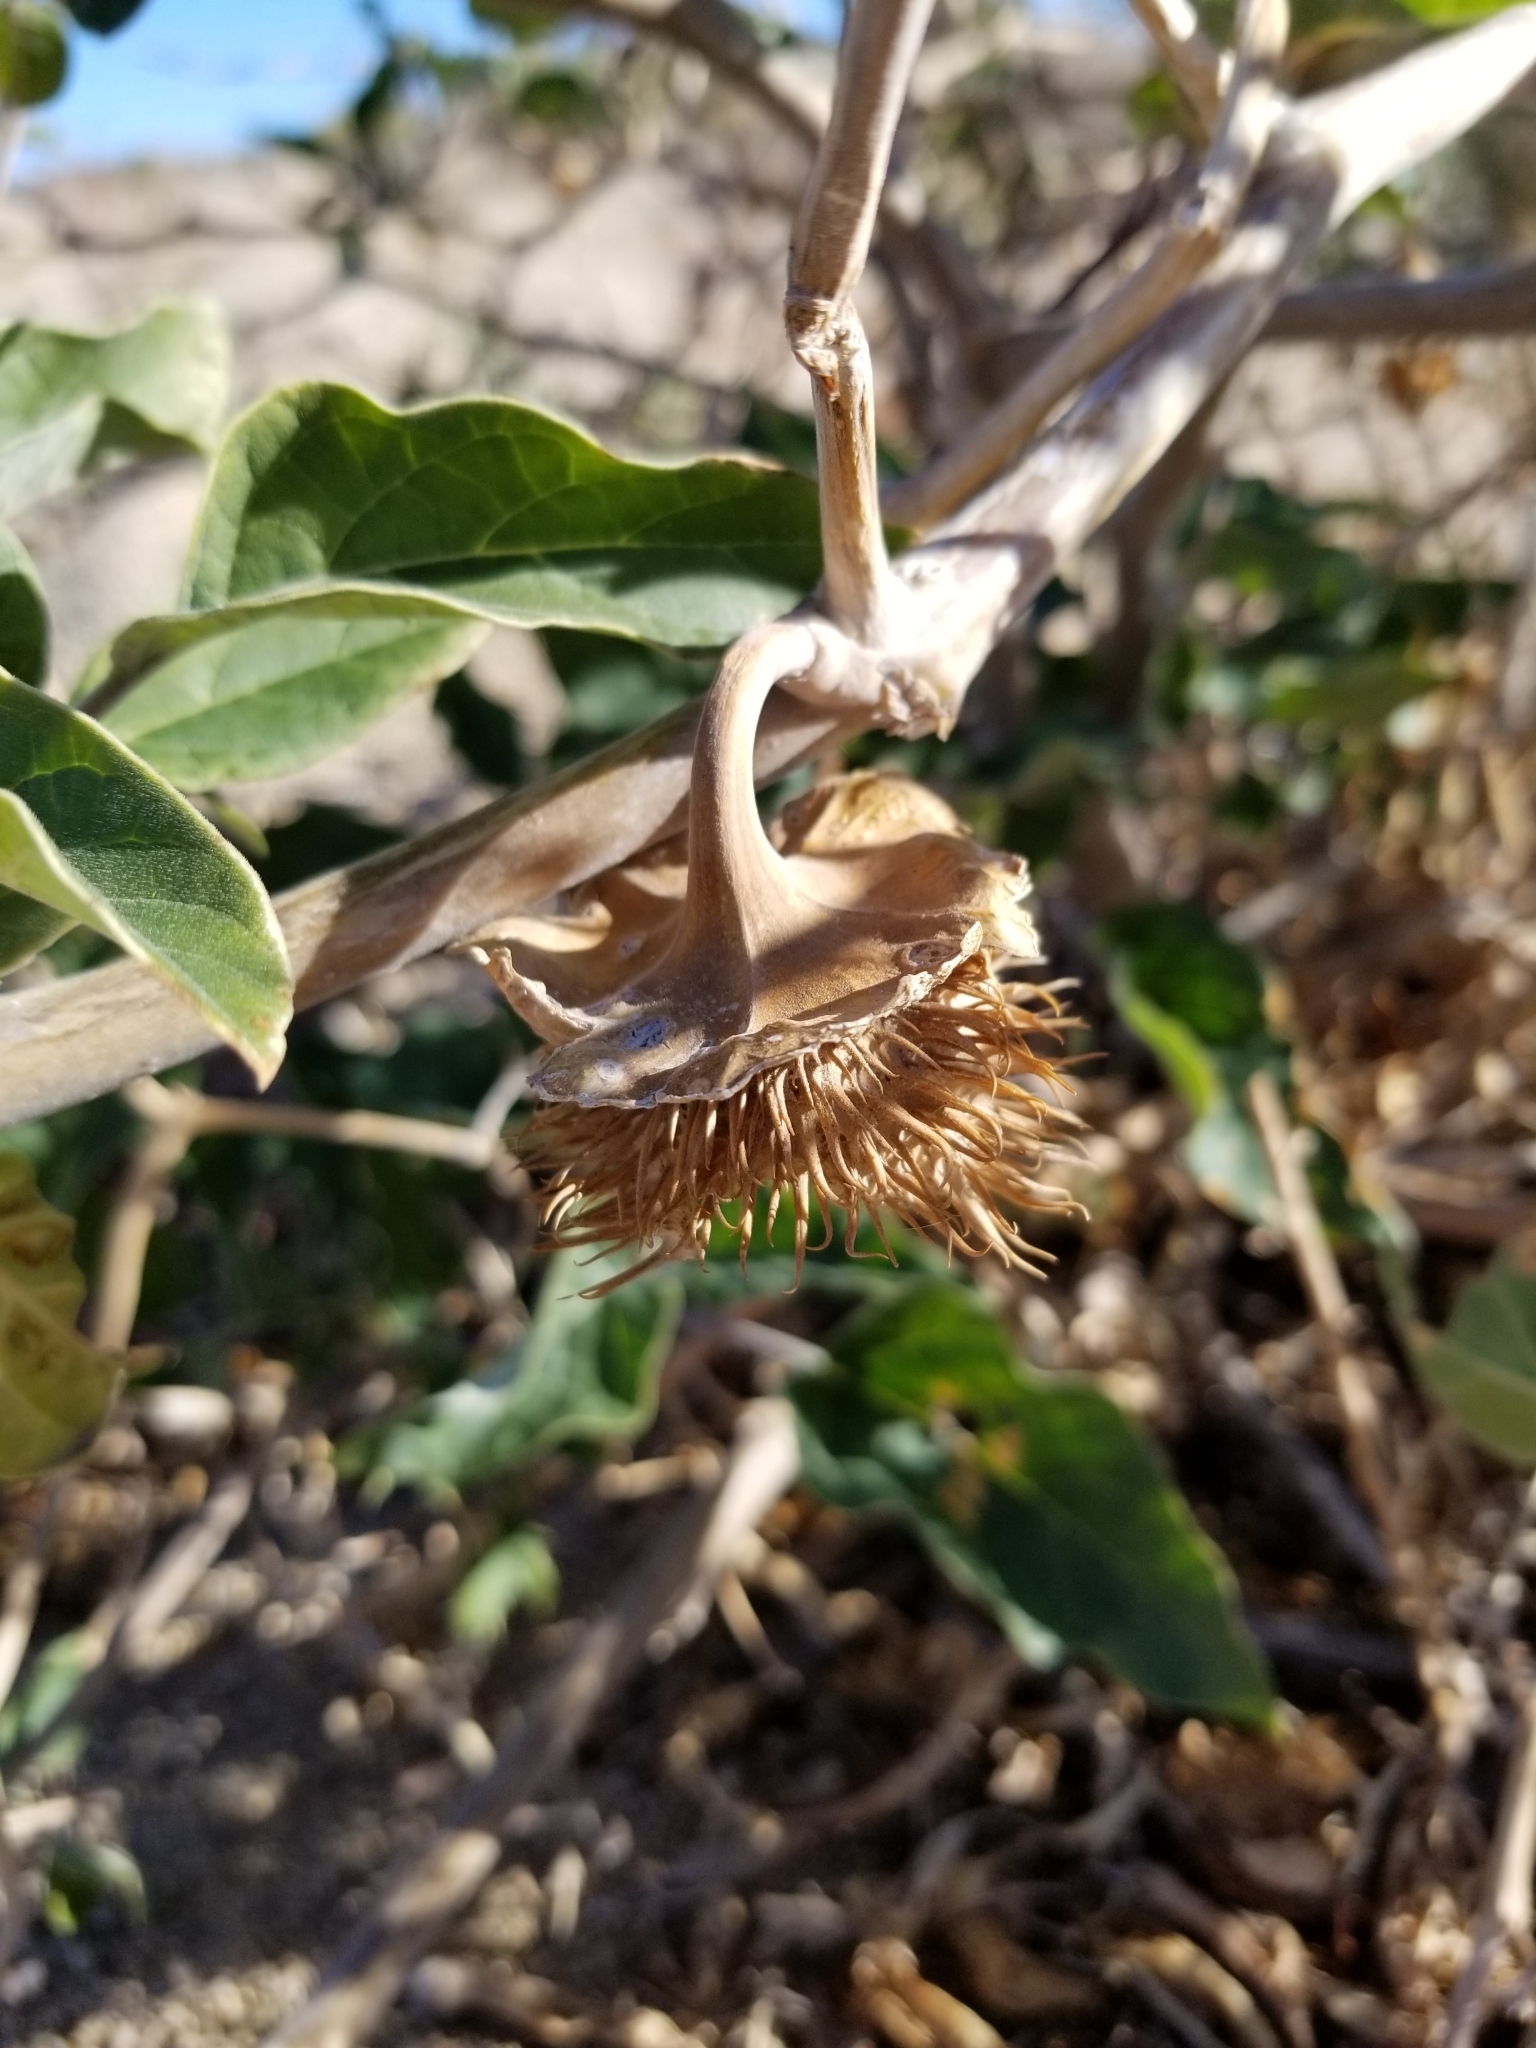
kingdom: Plantae
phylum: Tracheophyta
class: Magnoliopsida
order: Solanales
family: Solanaceae
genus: Datura
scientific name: Datura wrightii
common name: Sacred thorn-apple
